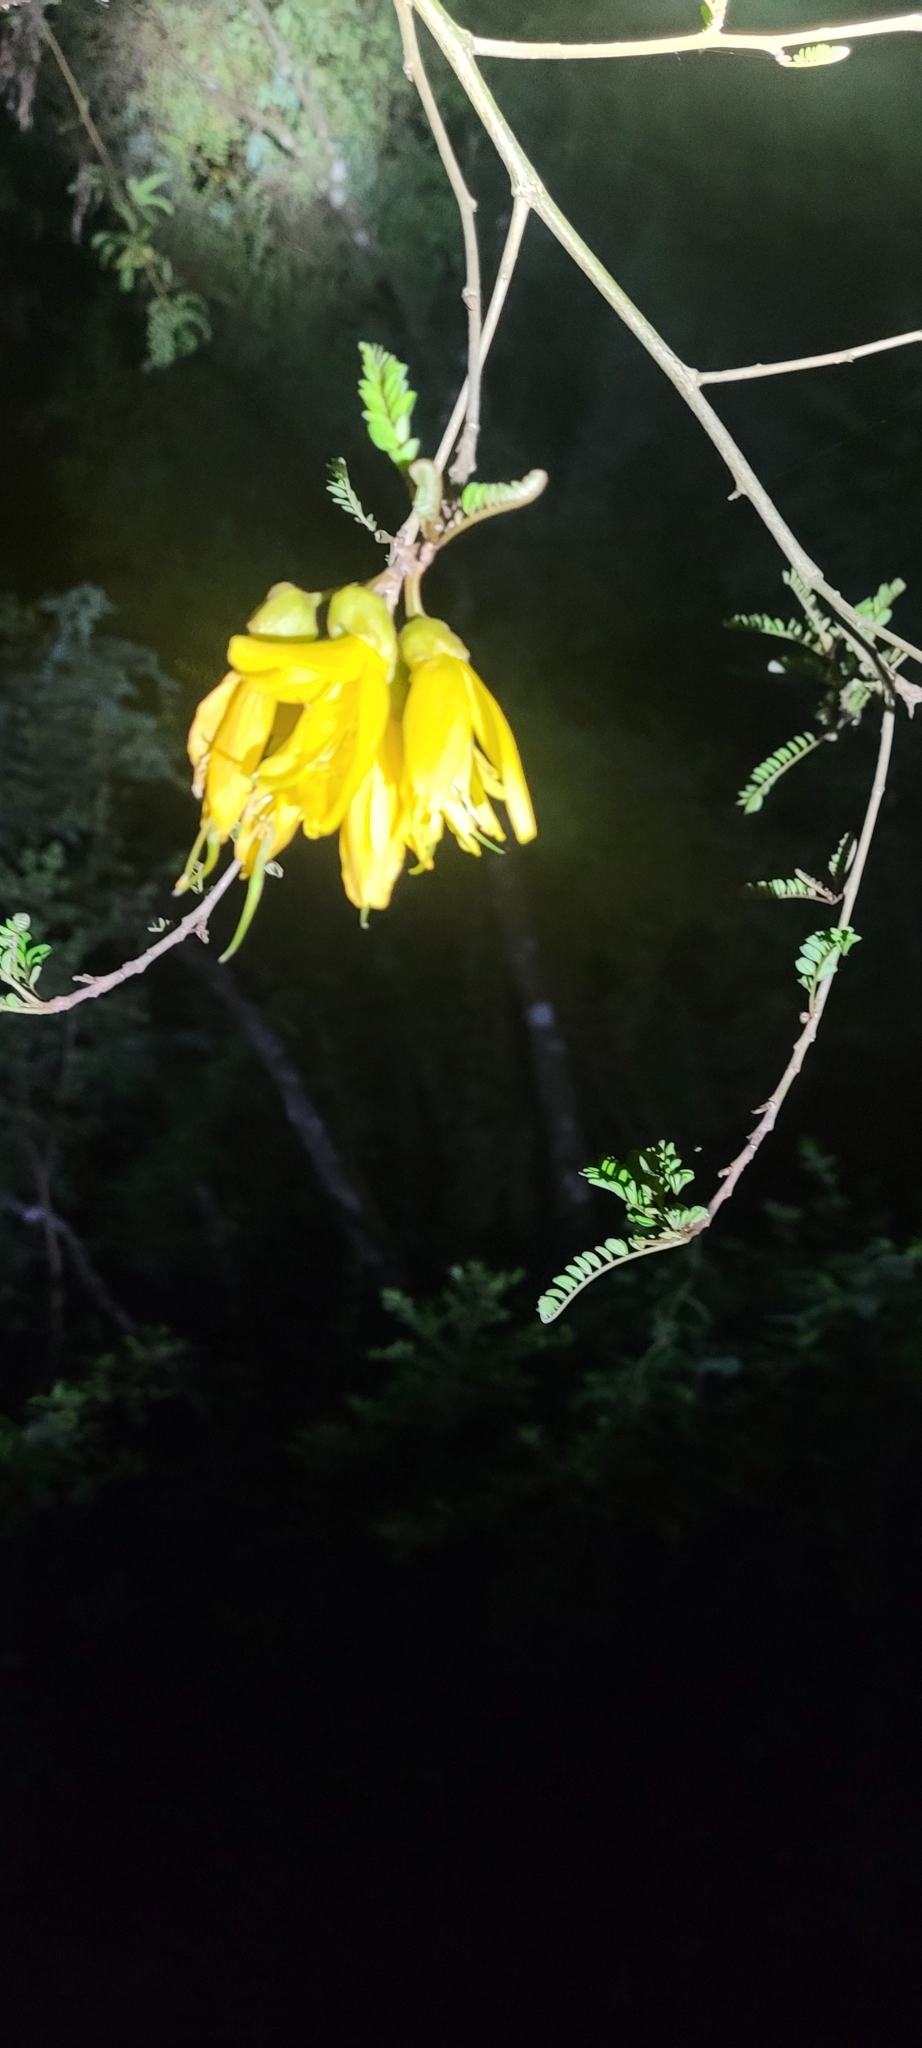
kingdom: Plantae
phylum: Tracheophyta
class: Magnoliopsida
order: Fabales
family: Fabaceae
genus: Sophora
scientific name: Sophora cassioides
